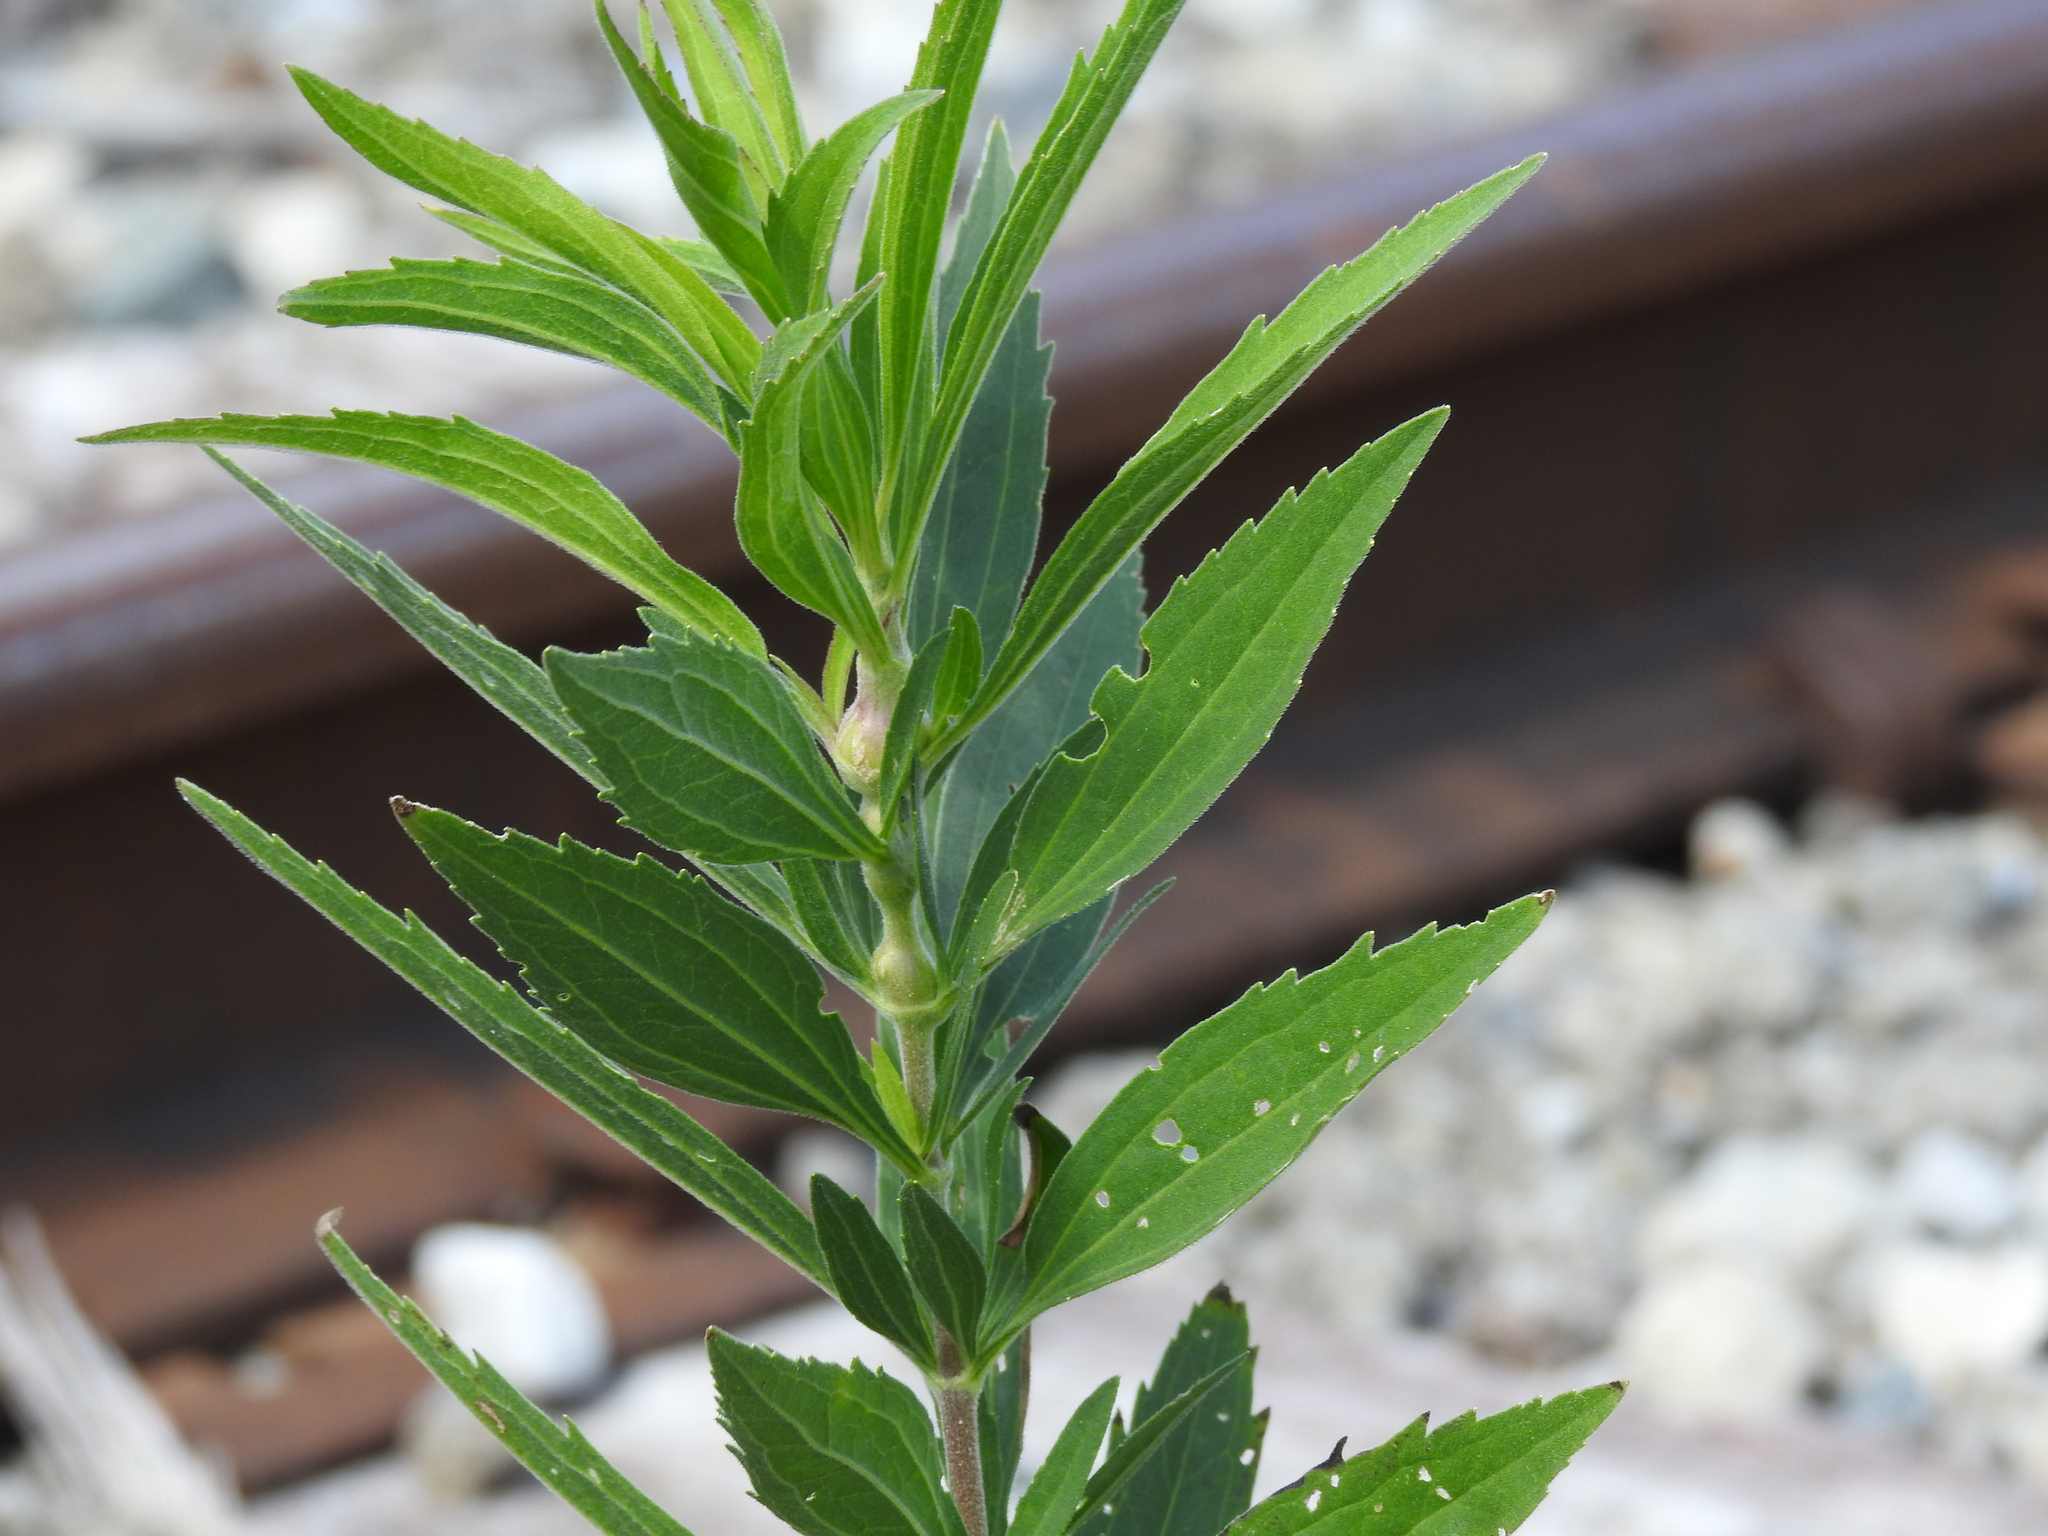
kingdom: Animalia
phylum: Arthropoda
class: Insecta
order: Diptera
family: Cecidomyiidae
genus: Neolasioptera
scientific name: Neolasioptera perfoliata
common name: Boneset stem midge
